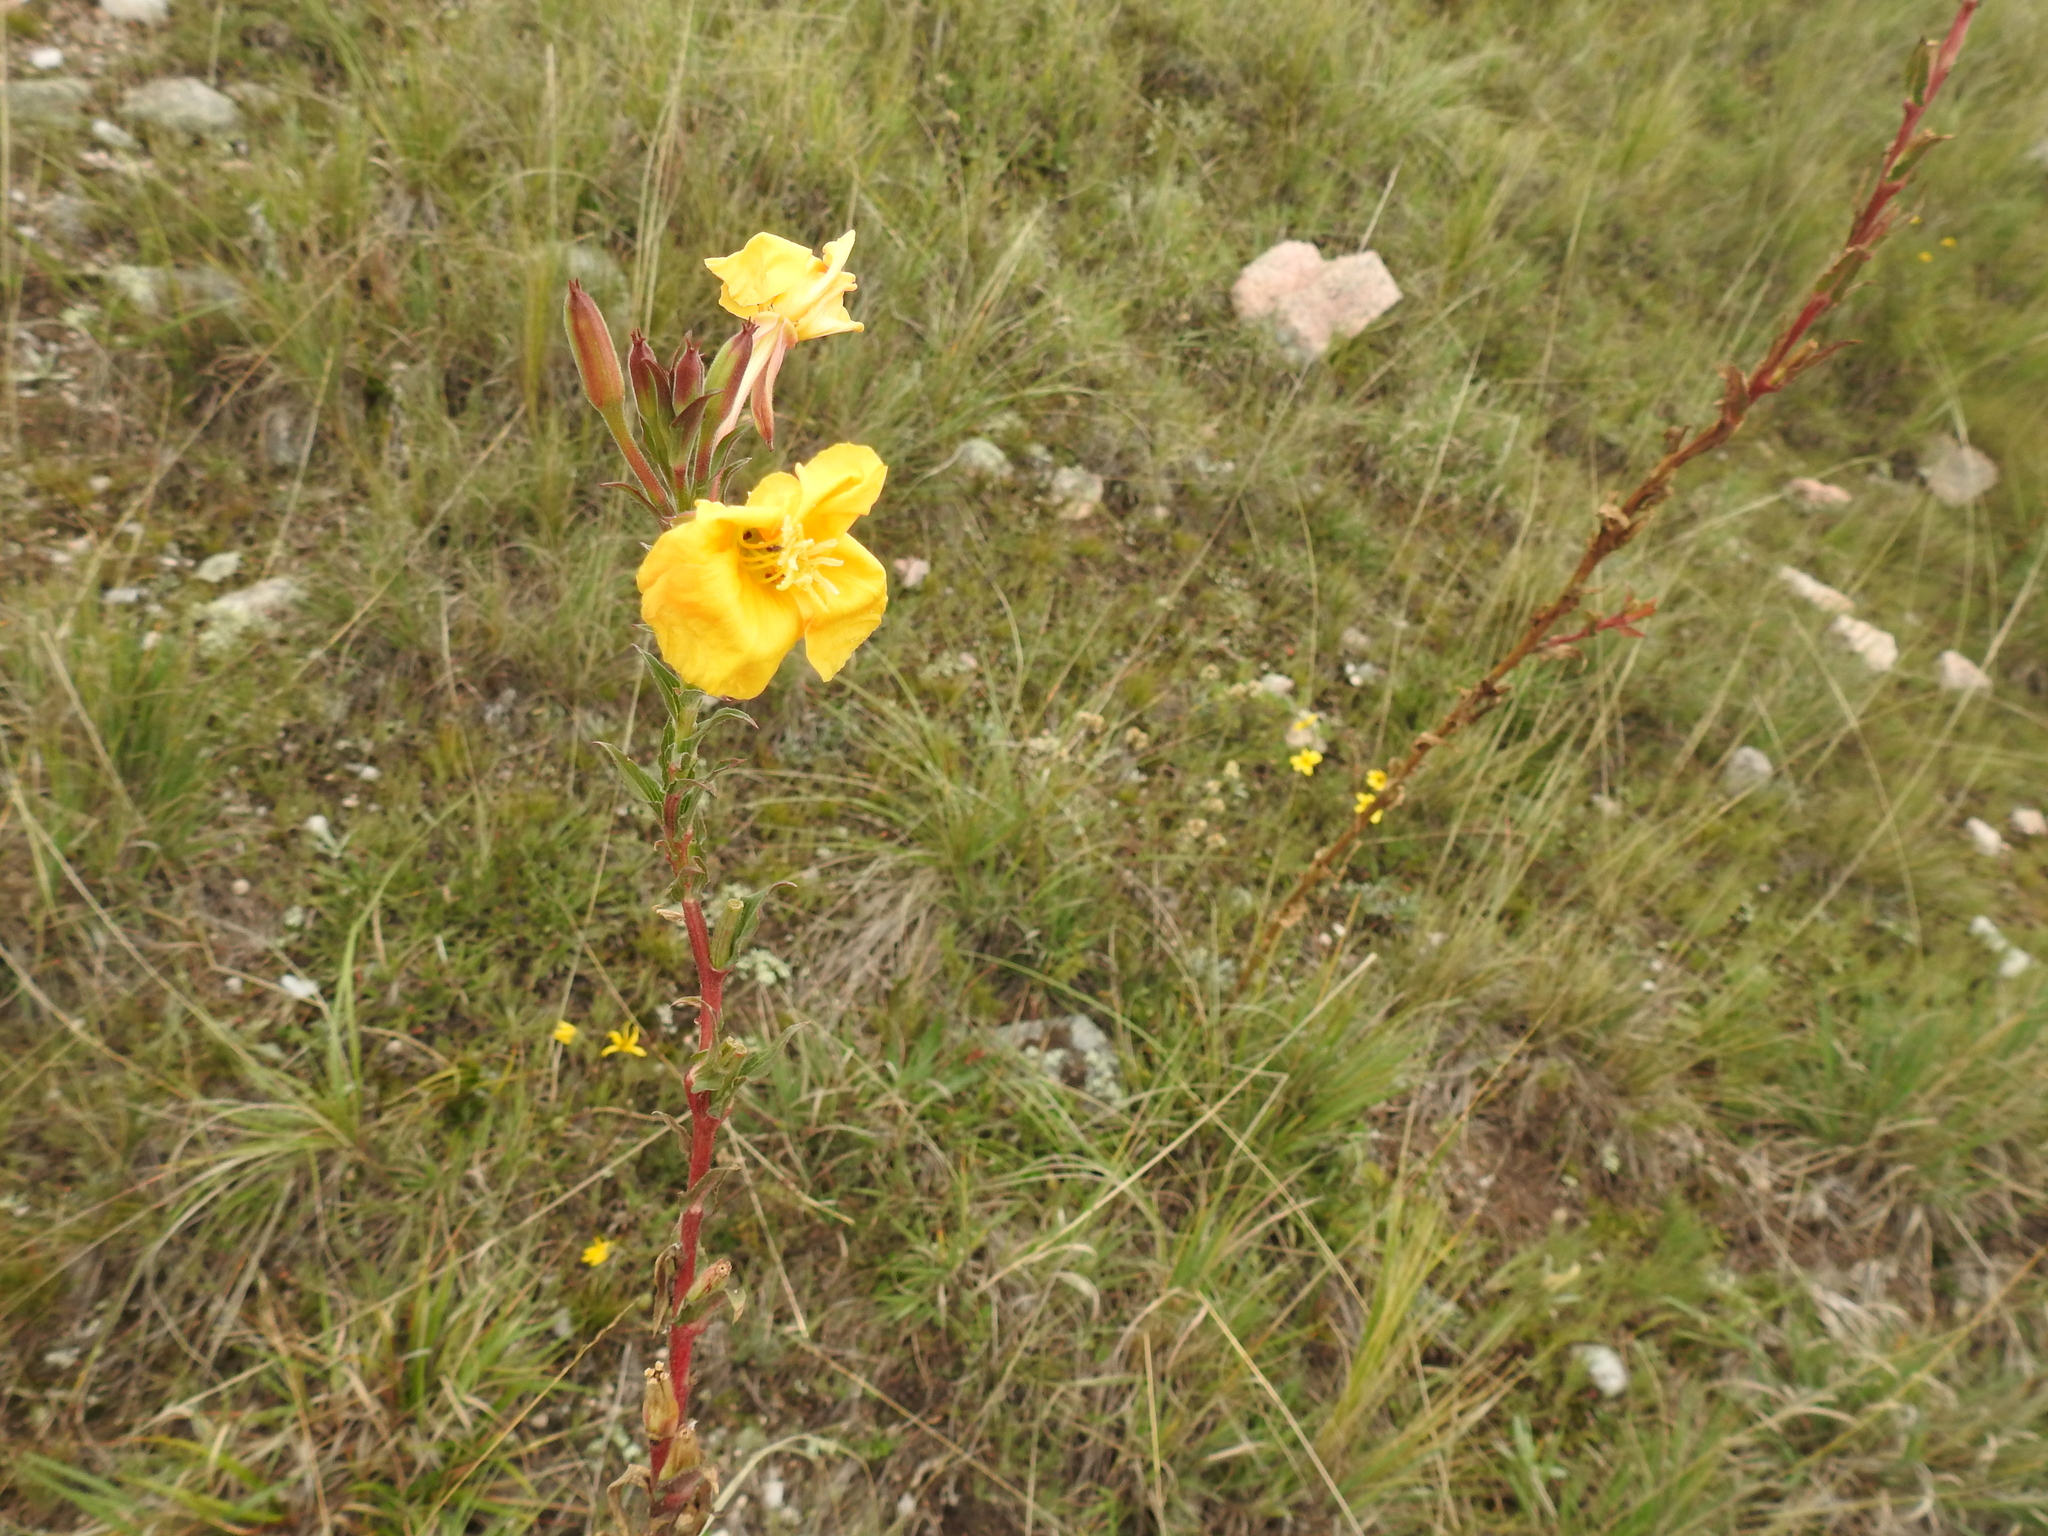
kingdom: Plantae
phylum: Tracheophyta
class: Magnoliopsida
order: Myrtales
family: Onagraceae
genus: Oenothera
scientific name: Oenothera affinis
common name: Longflower evening primrose
